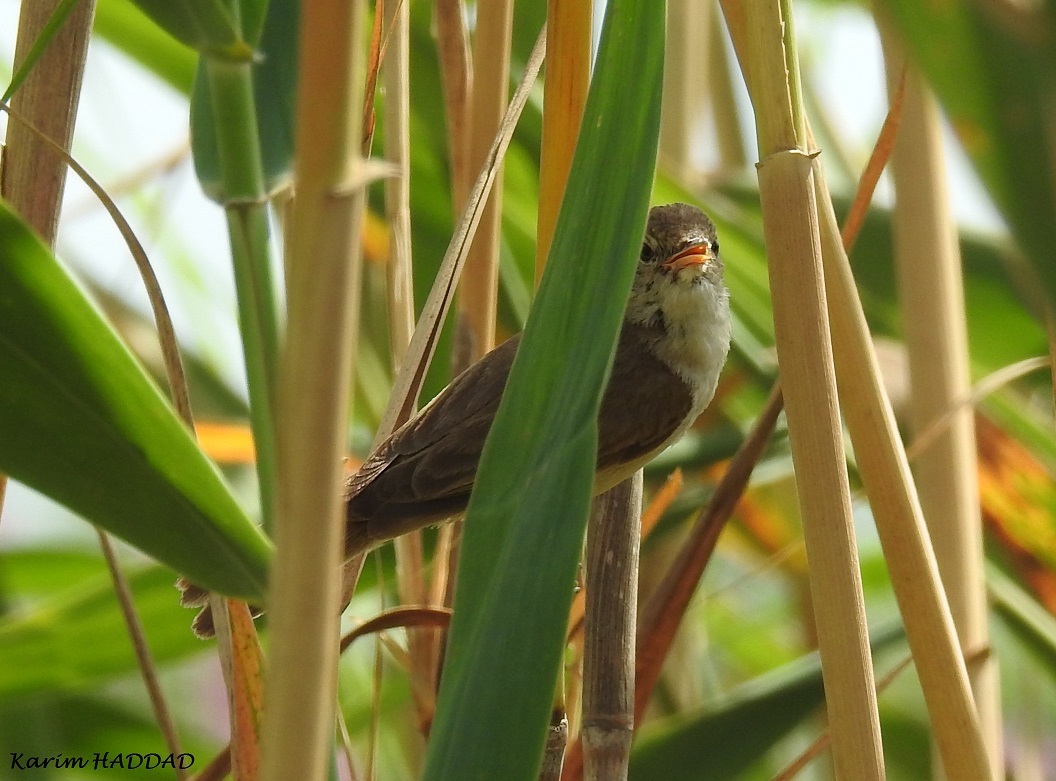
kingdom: Animalia
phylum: Chordata
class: Aves
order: Passeriformes
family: Acrocephalidae
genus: Acrocephalus
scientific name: Acrocephalus scirpaceus
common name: Eurasian reed warbler
